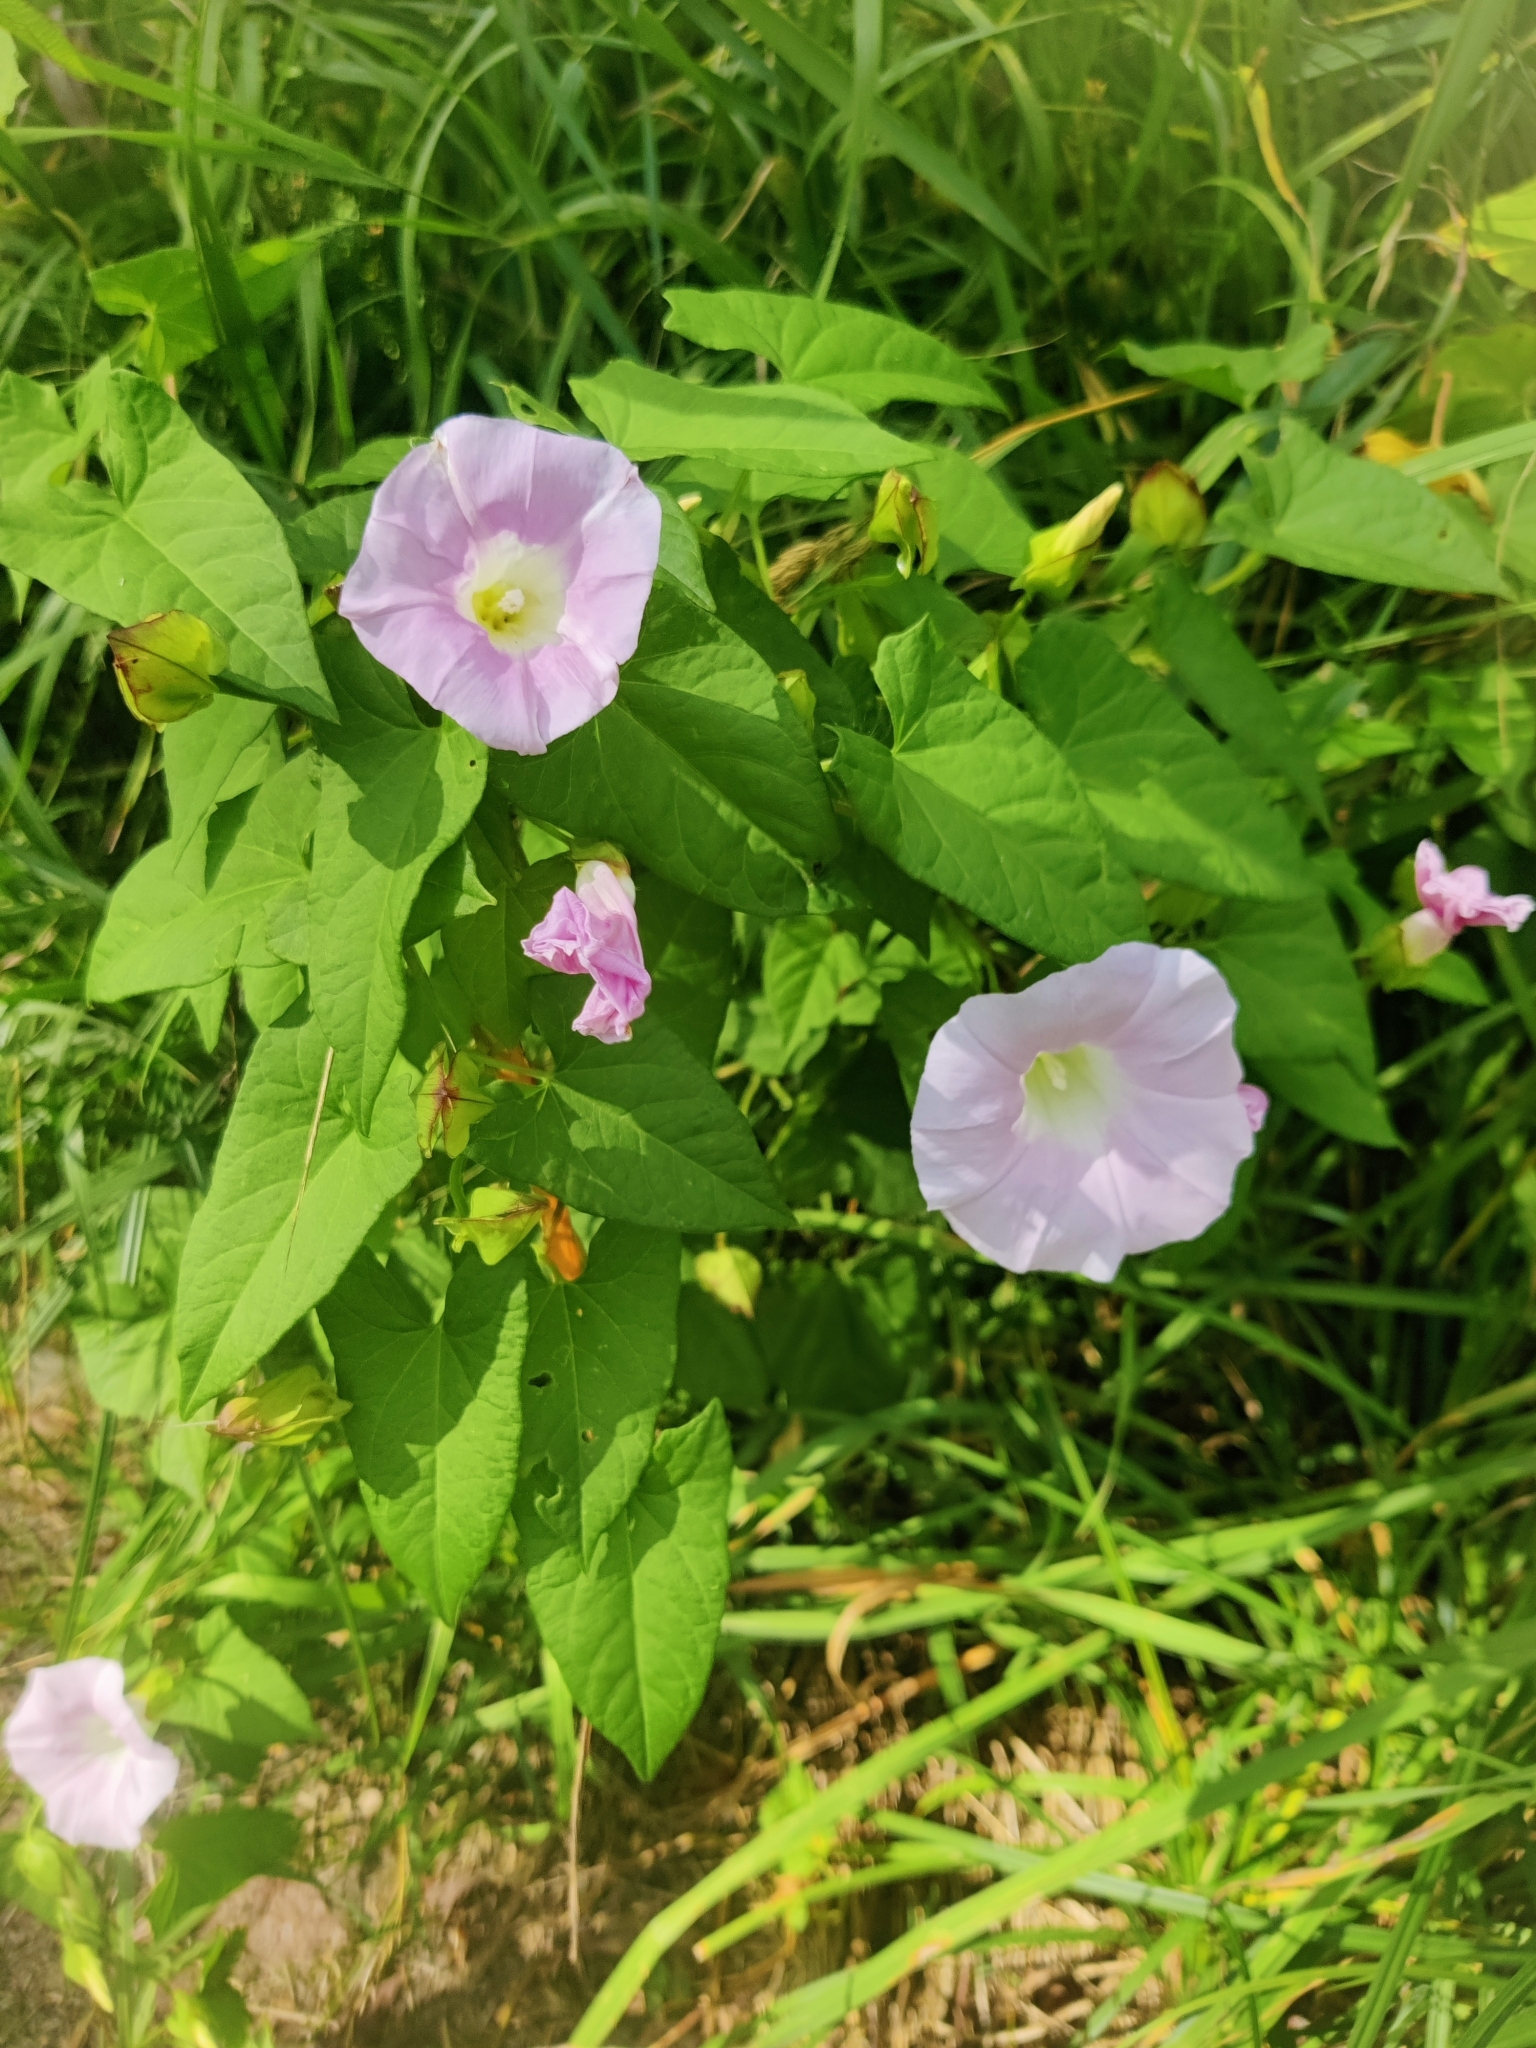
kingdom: Plantae
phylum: Tracheophyta
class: Magnoliopsida
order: Solanales
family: Convolvulaceae
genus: Calystegia
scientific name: Calystegia sepium
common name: Hedge bindweed
